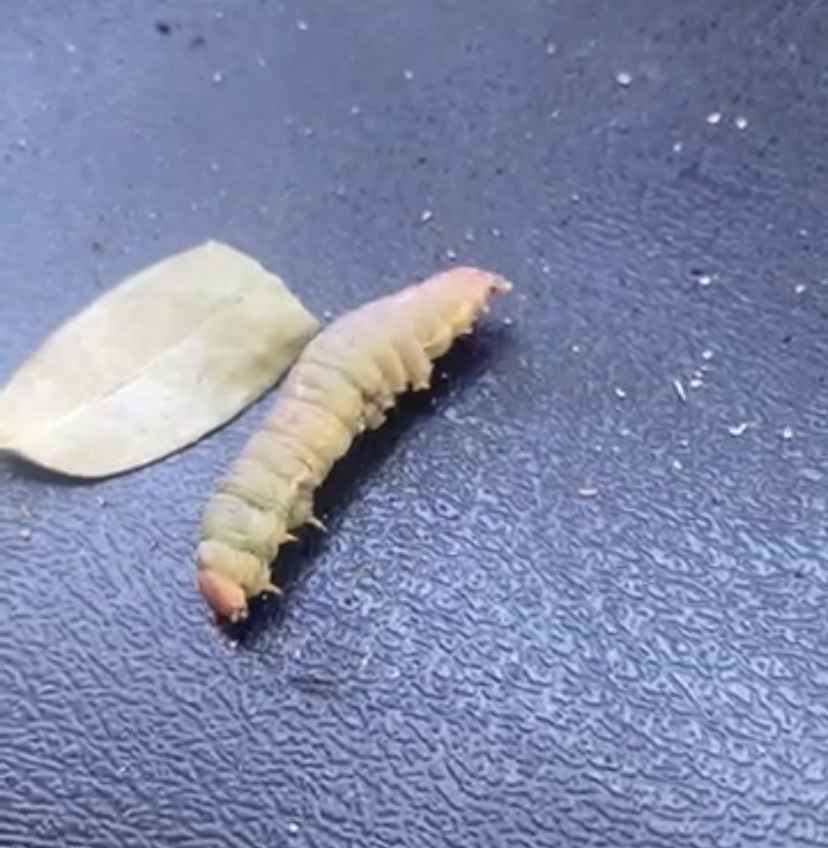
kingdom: Animalia
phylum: Arthropoda
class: Insecta
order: Lepidoptera
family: Notodontidae
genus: Heterocampa
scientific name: Heterocampa umbrata
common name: White-blotched heterocampa
